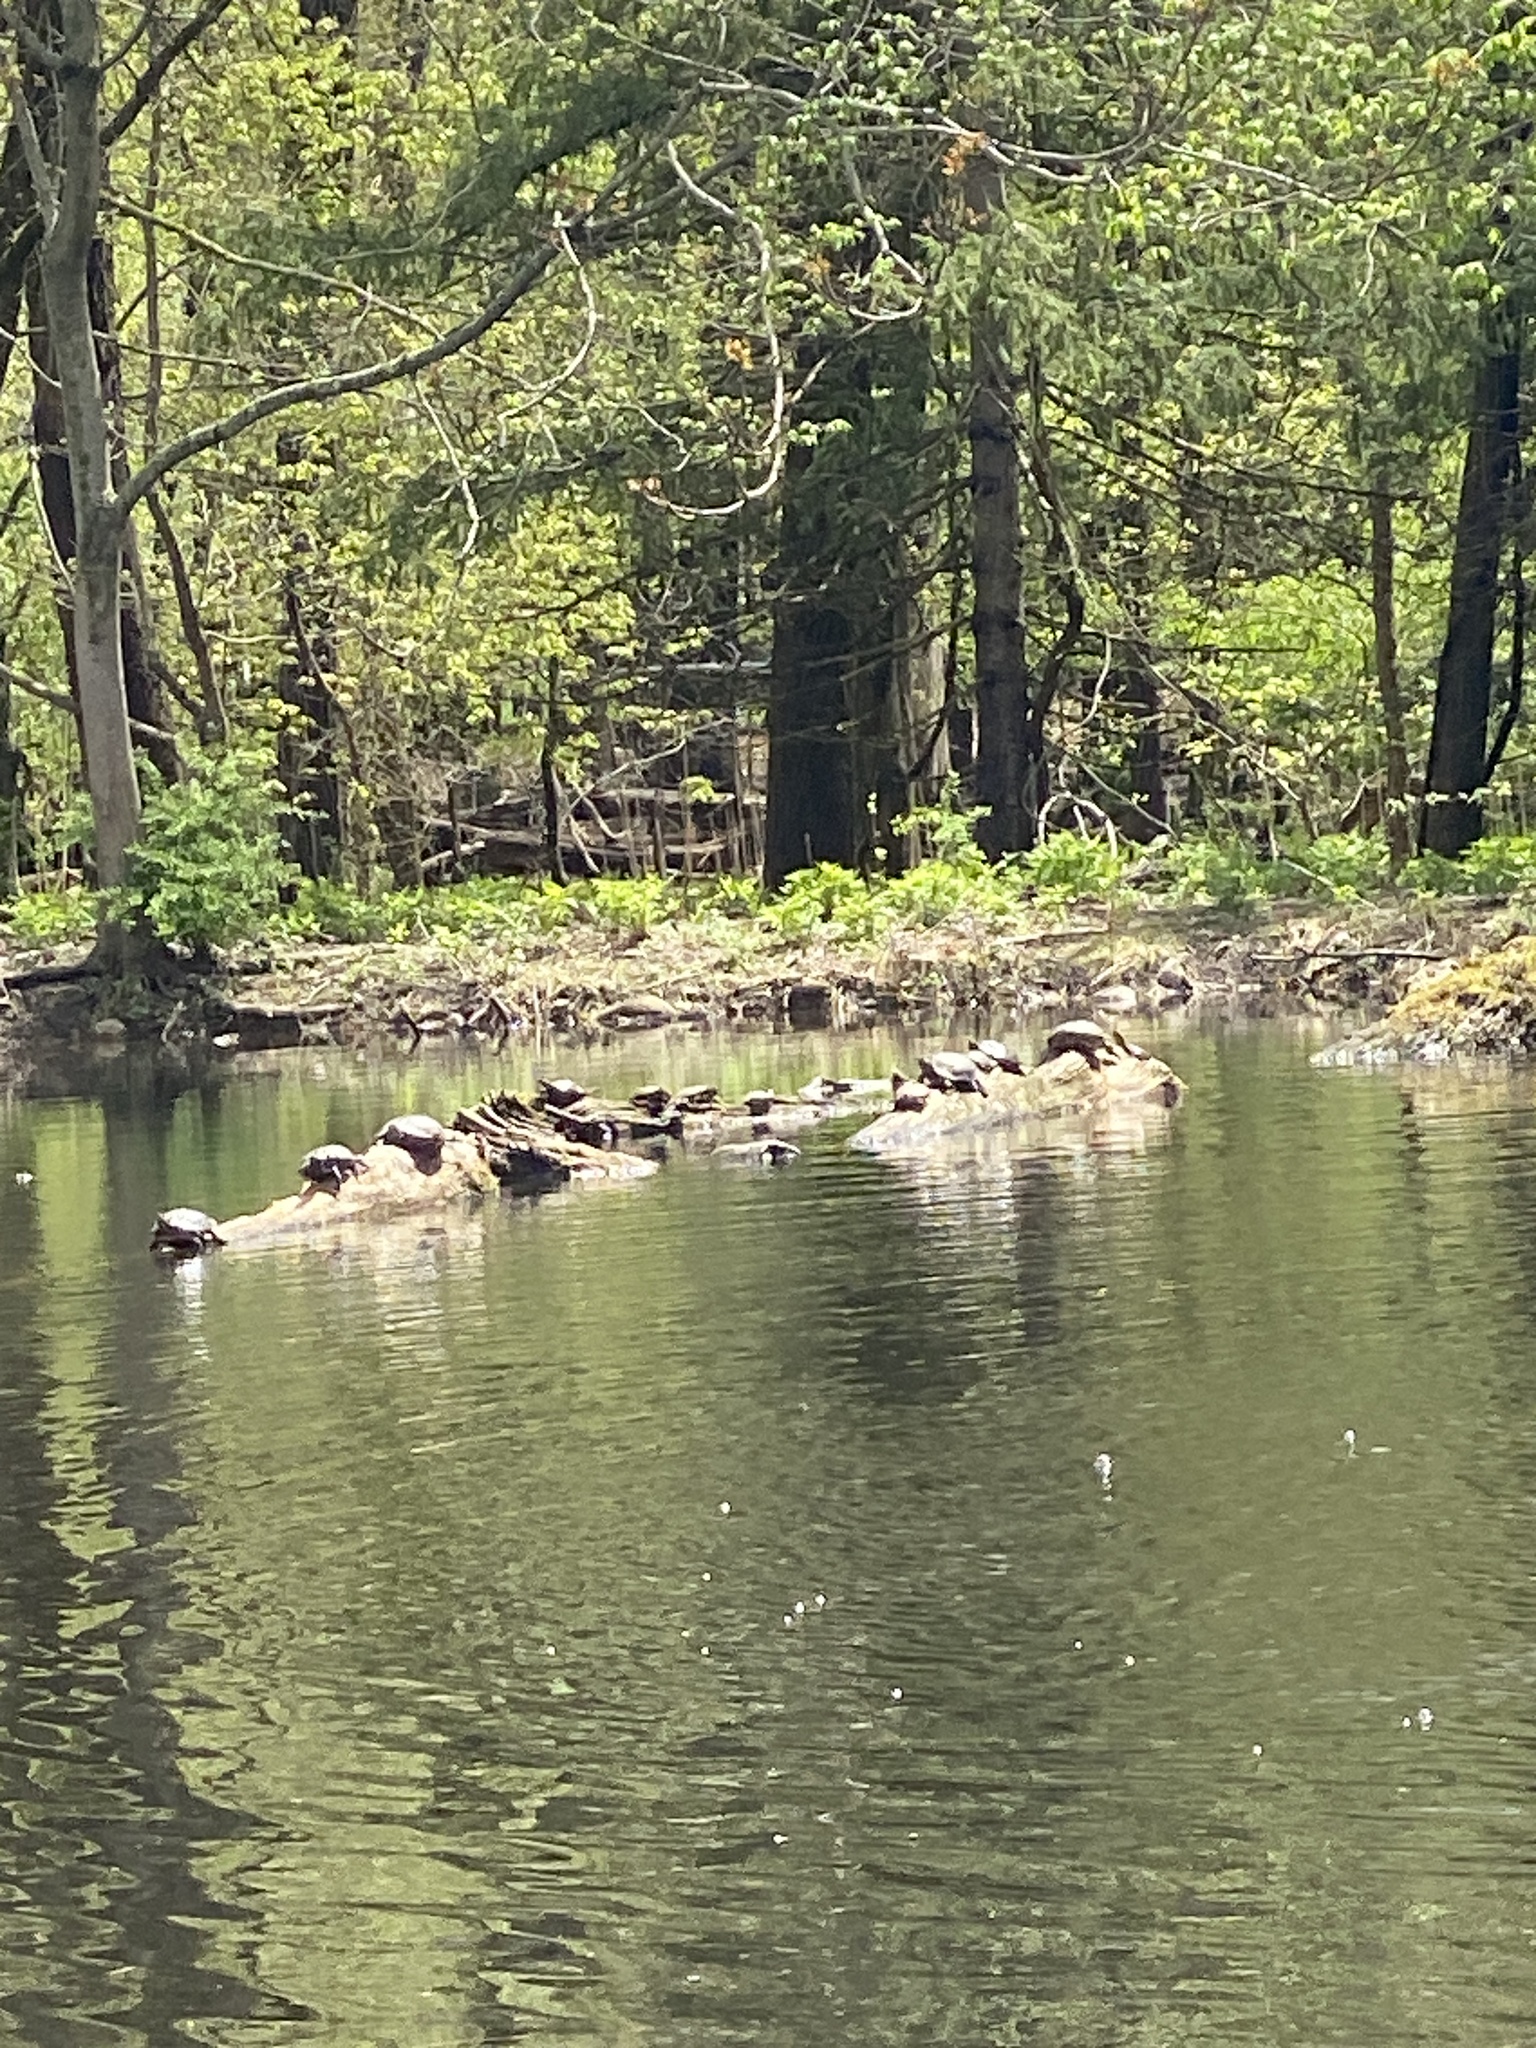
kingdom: Animalia
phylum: Chordata
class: Testudines
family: Emydidae
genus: Trachemys
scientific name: Trachemys scripta
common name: Slider
